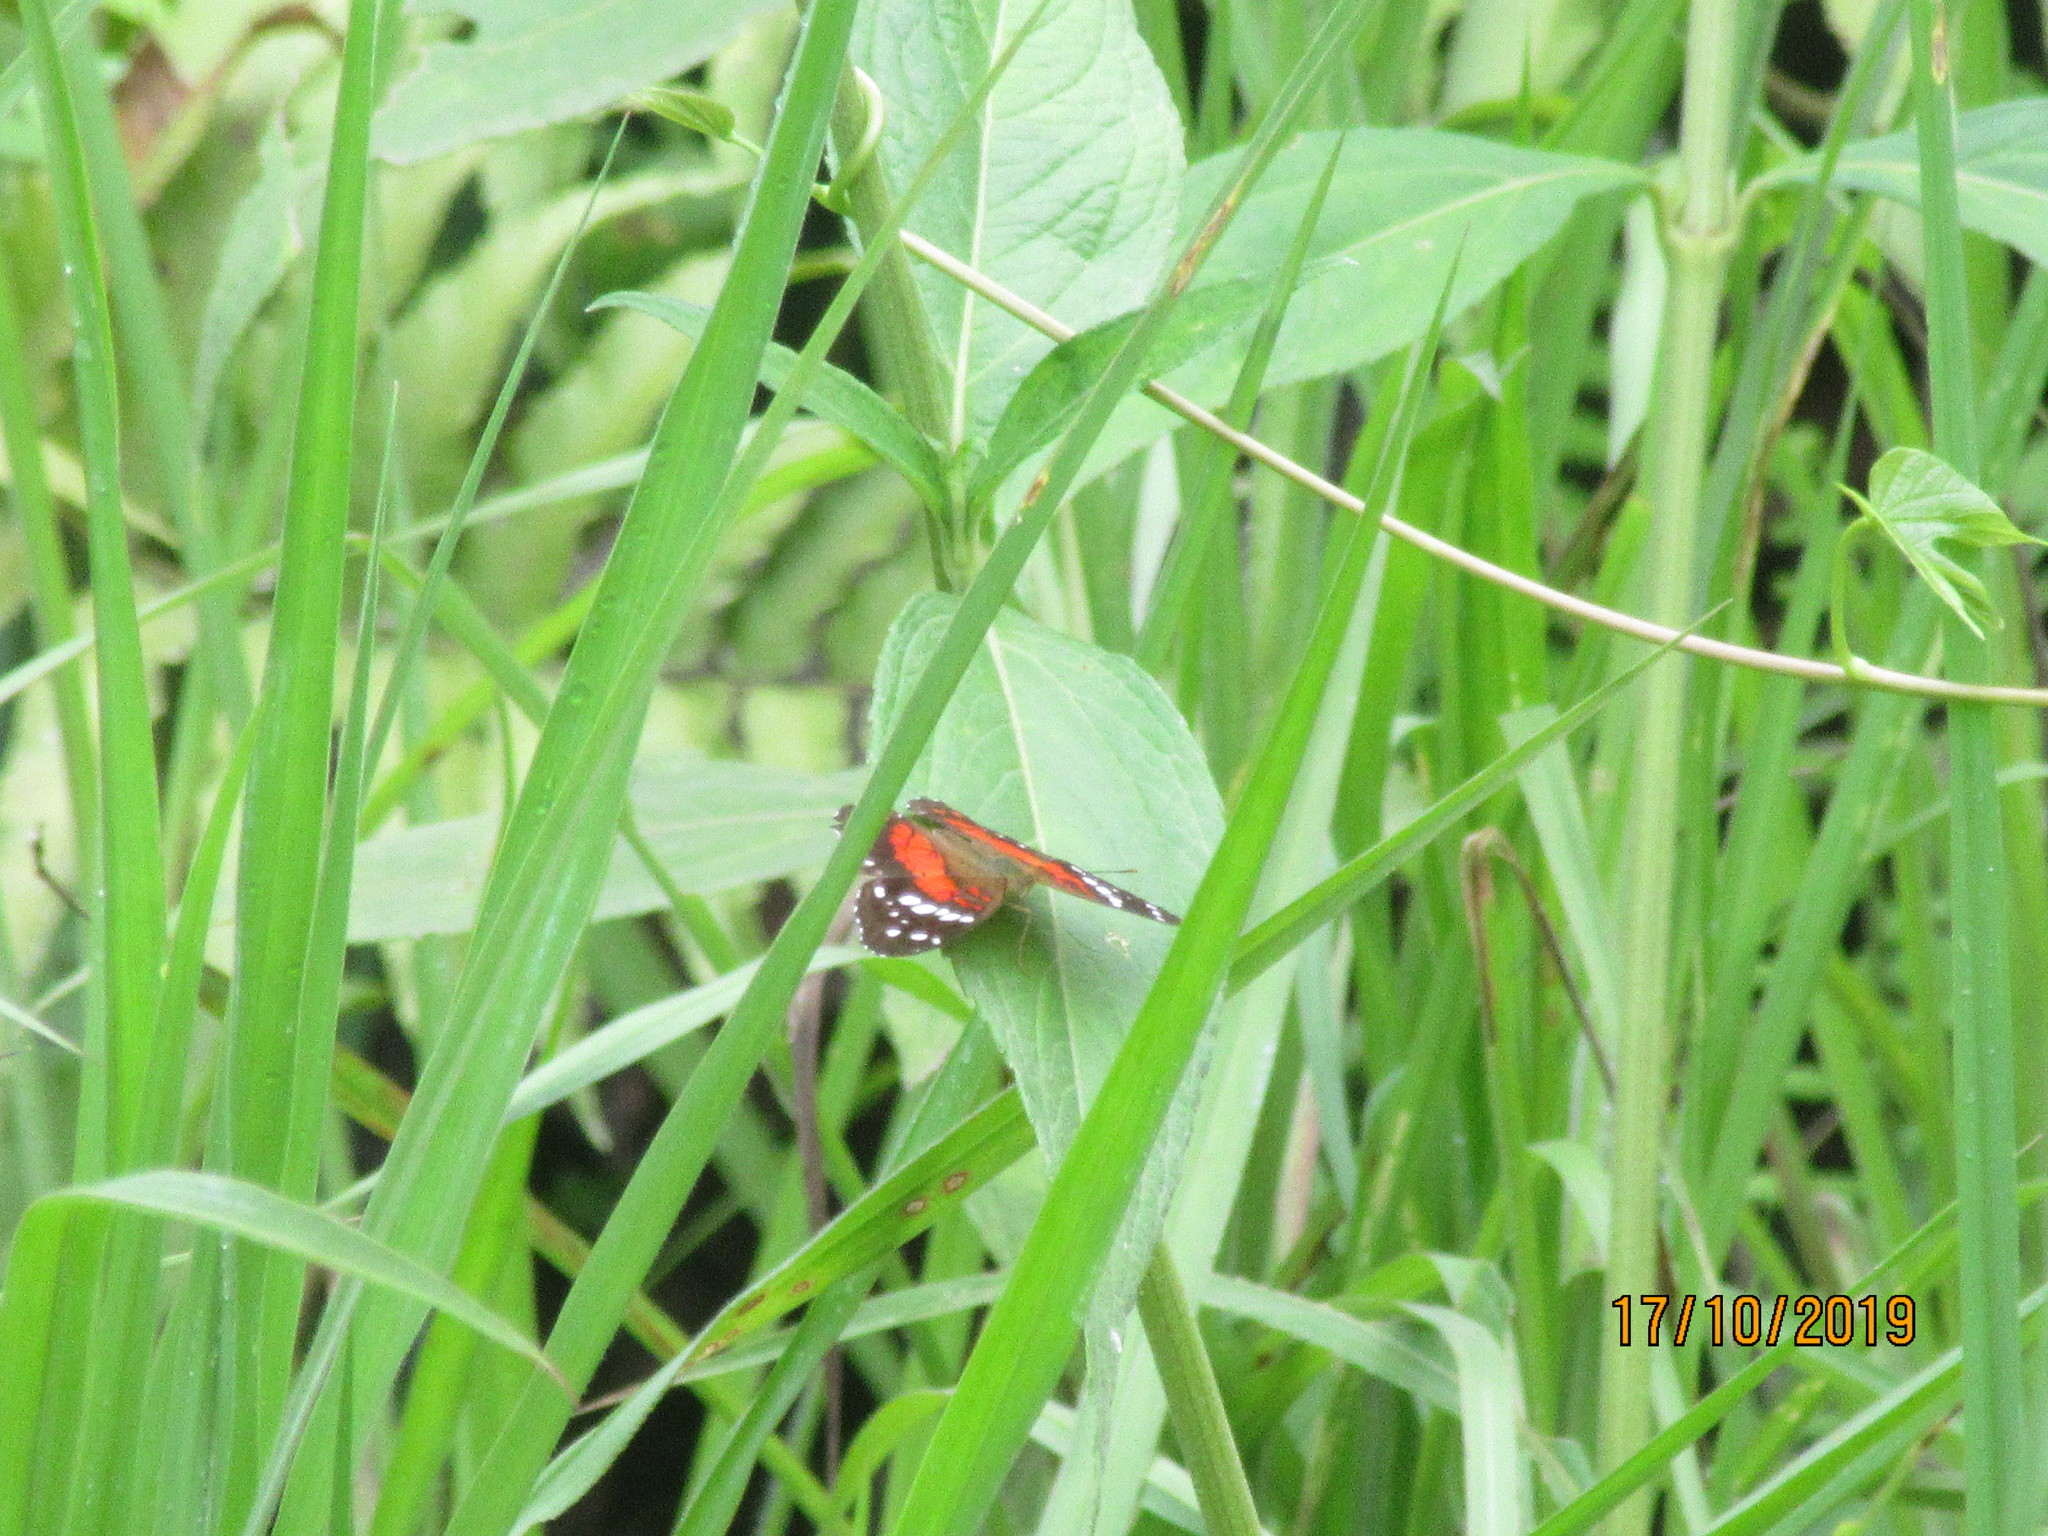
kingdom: Animalia
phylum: Arthropoda
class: Insecta
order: Lepidoptera
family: Nymphalidae
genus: Anartia
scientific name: Anartia amathea
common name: Red peacock
